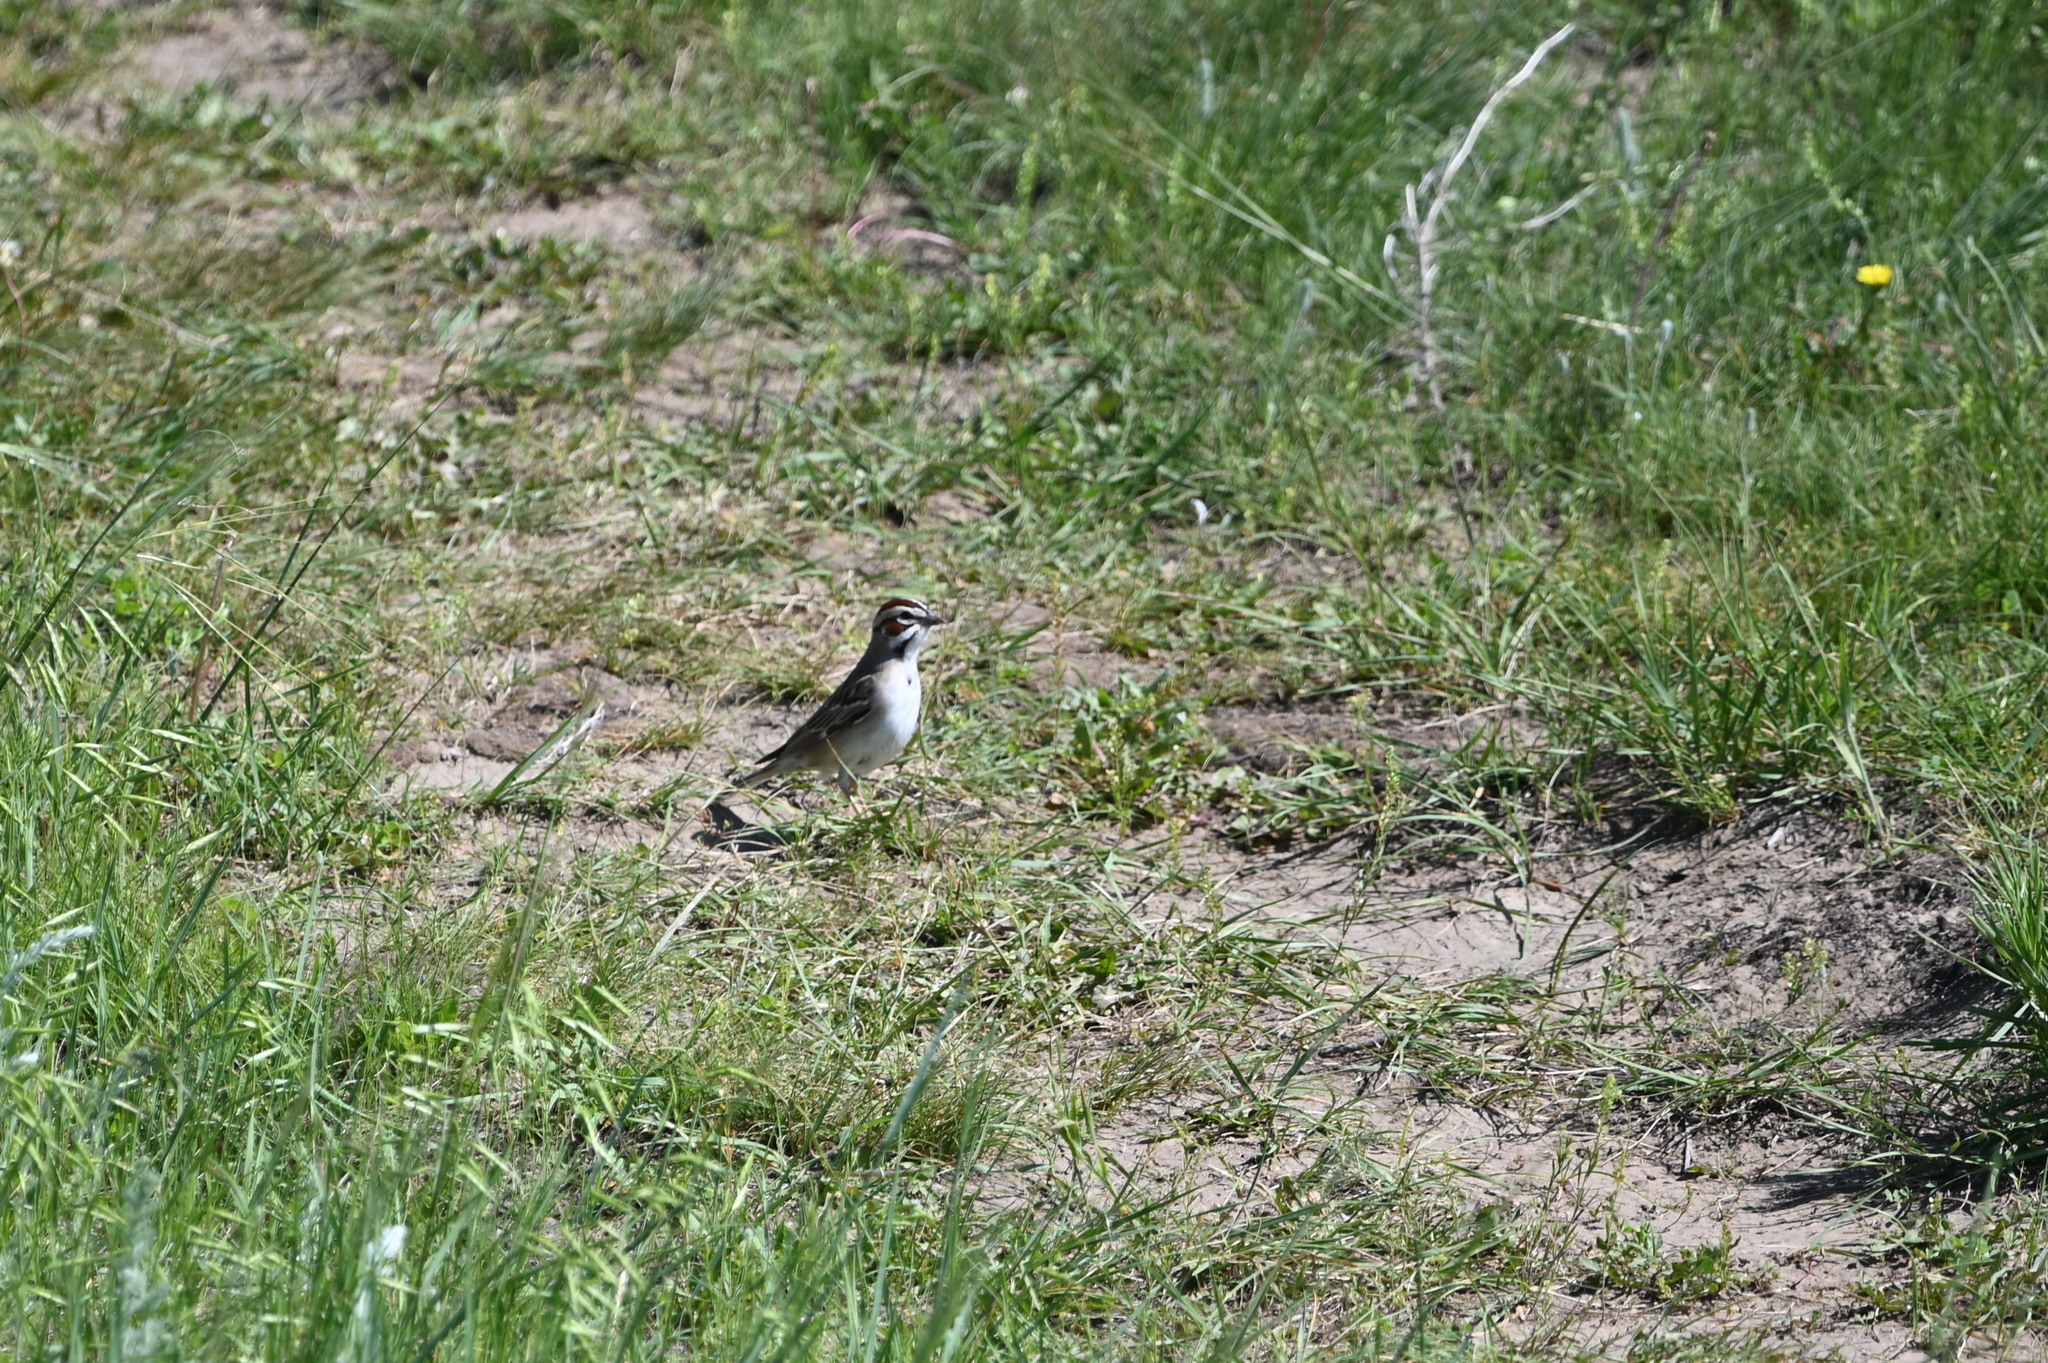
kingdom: Animalia
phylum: Chordata
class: Aves
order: Passeriformes
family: Passerellidae
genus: Chondestes
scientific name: Chondestes grammacus
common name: Lark sparrow
